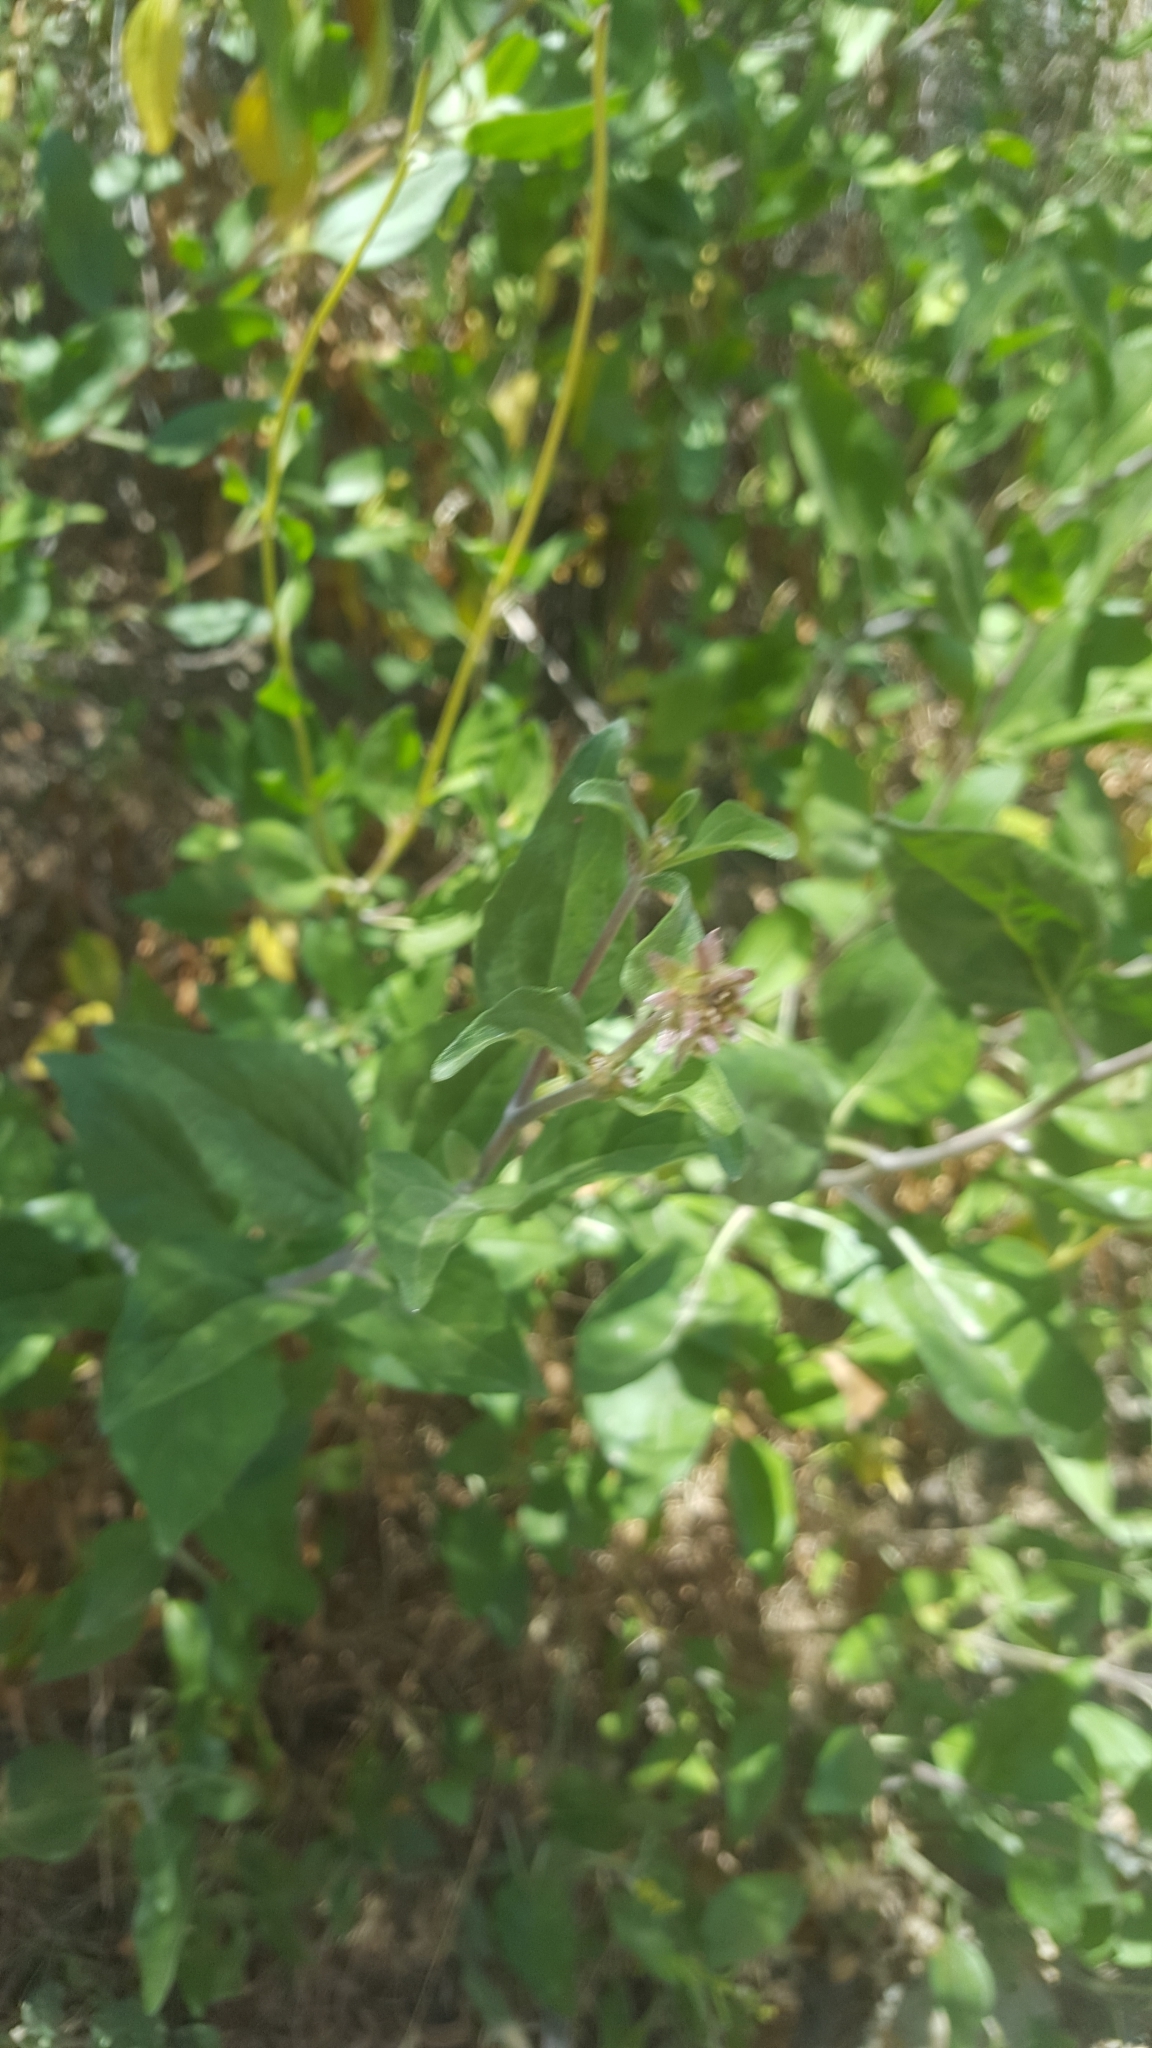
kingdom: Plantae
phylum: Tracheophyta
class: Magnoliopsida
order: Asterales
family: Asteraceae
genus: Encelia
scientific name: Encelia californica
